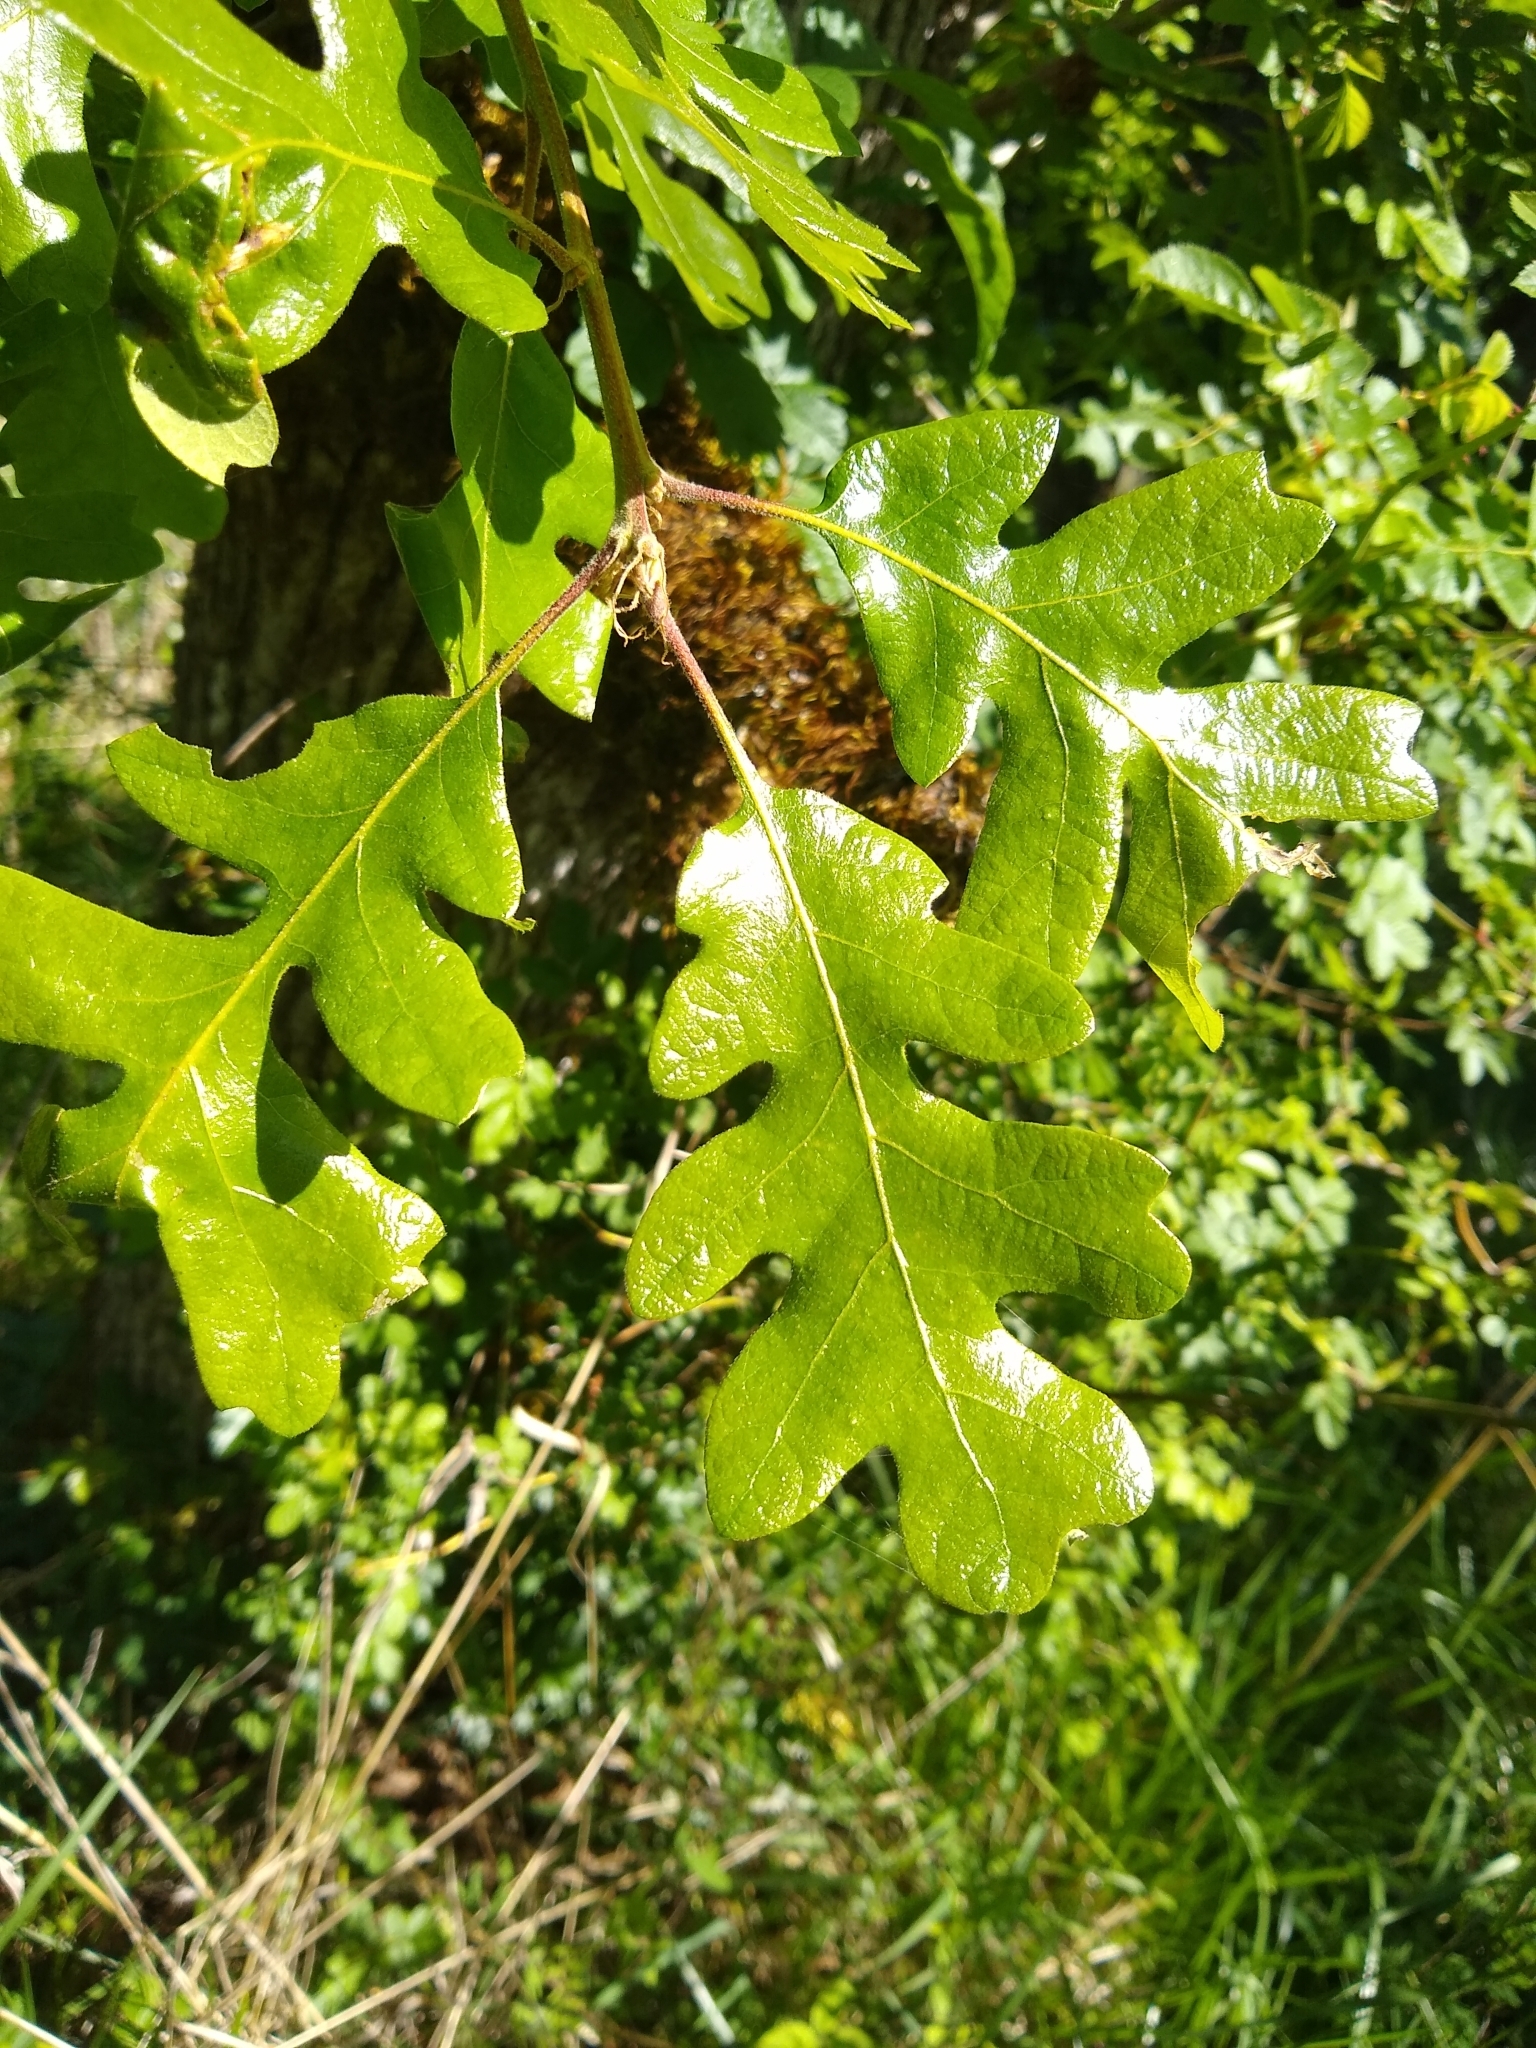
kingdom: Plantae
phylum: Tracheophyta
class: Magnoliopsida
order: Fagales
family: Fagaceae
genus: Quercus
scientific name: Quercus garryana
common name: Garry oak
